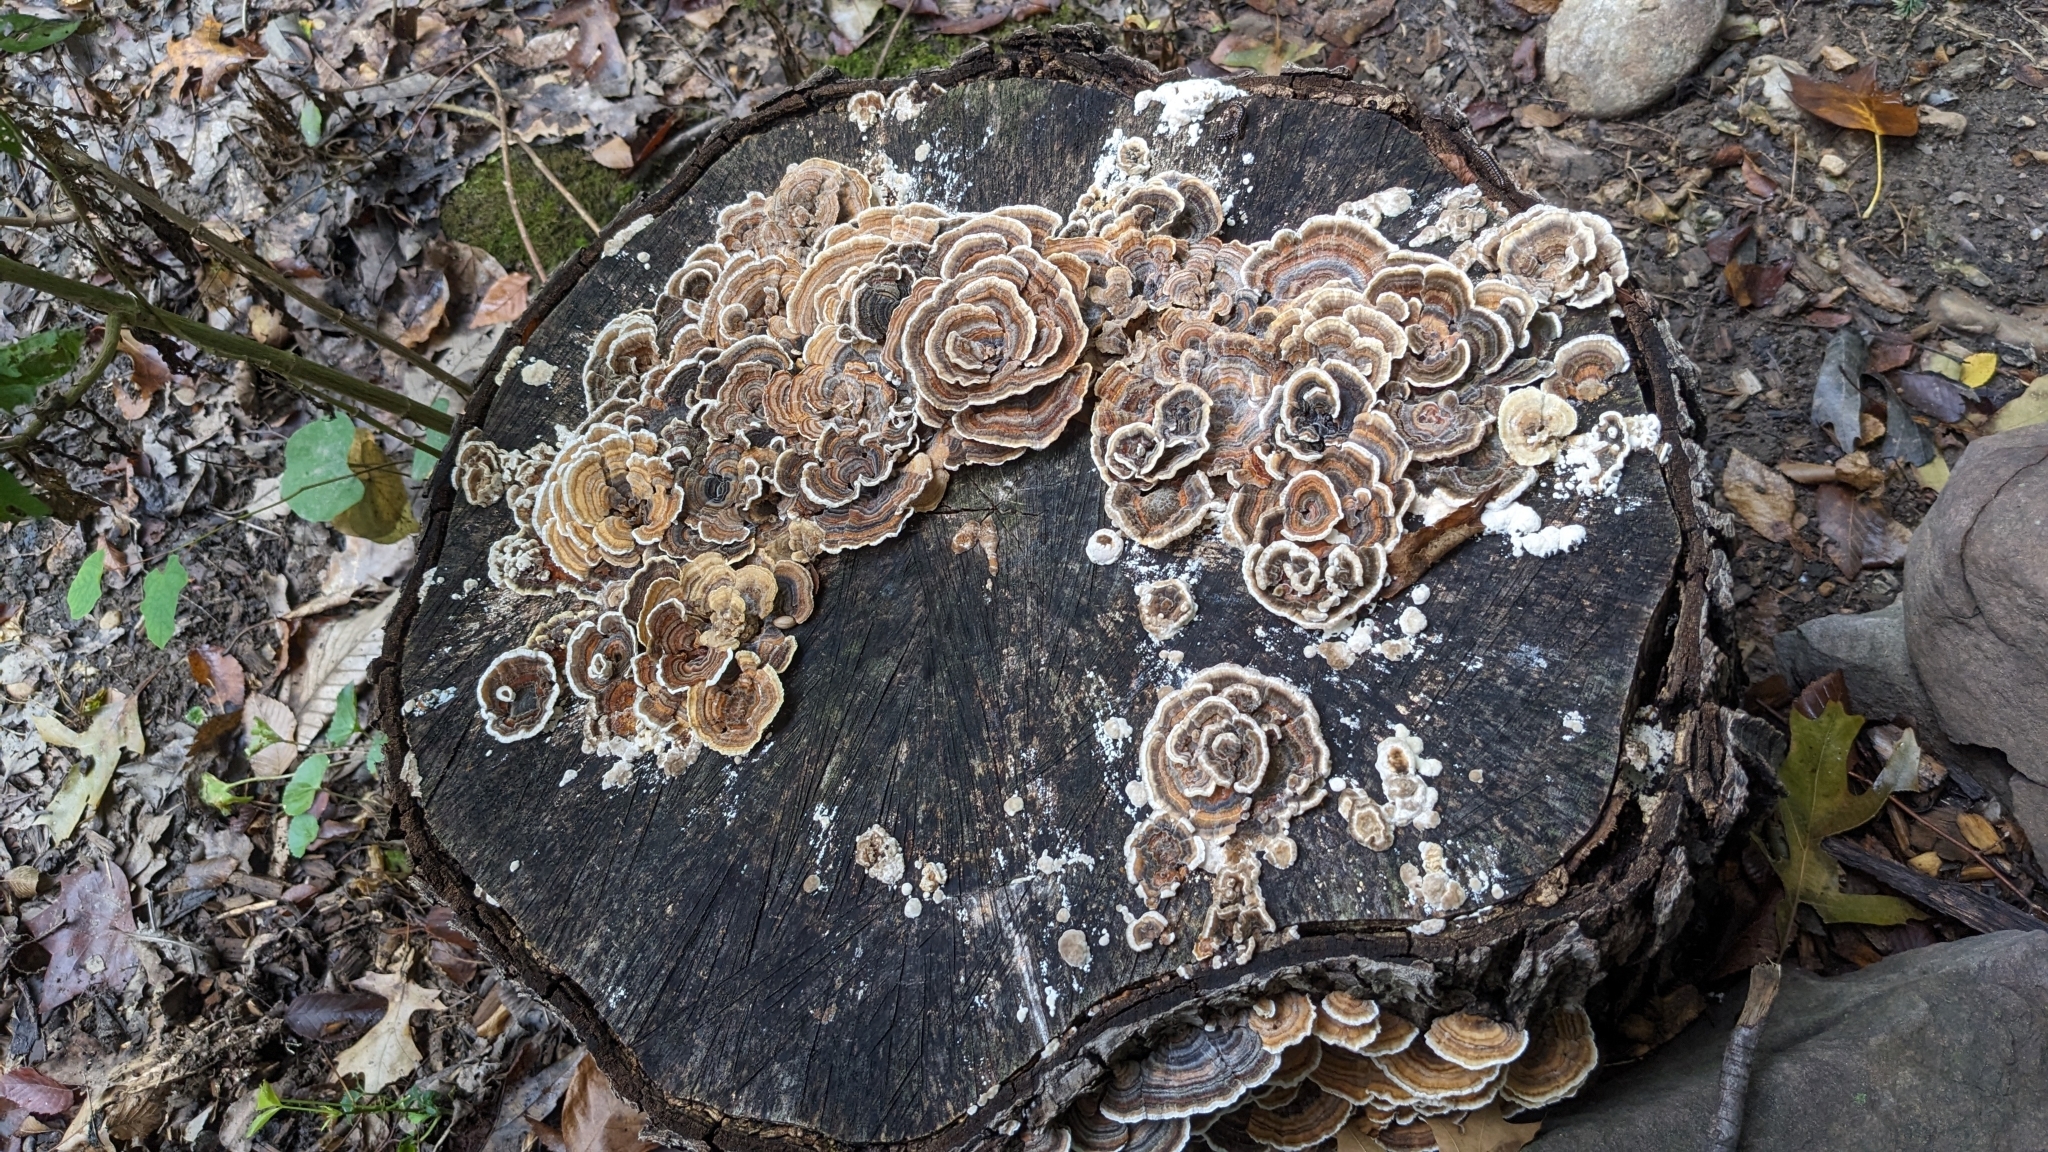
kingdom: Fungi
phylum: Basidiomycota
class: Agaricomycetes
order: Polyporales
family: Polyporaceae
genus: Trametes
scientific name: Trametes versicolor
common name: Turkeytail
